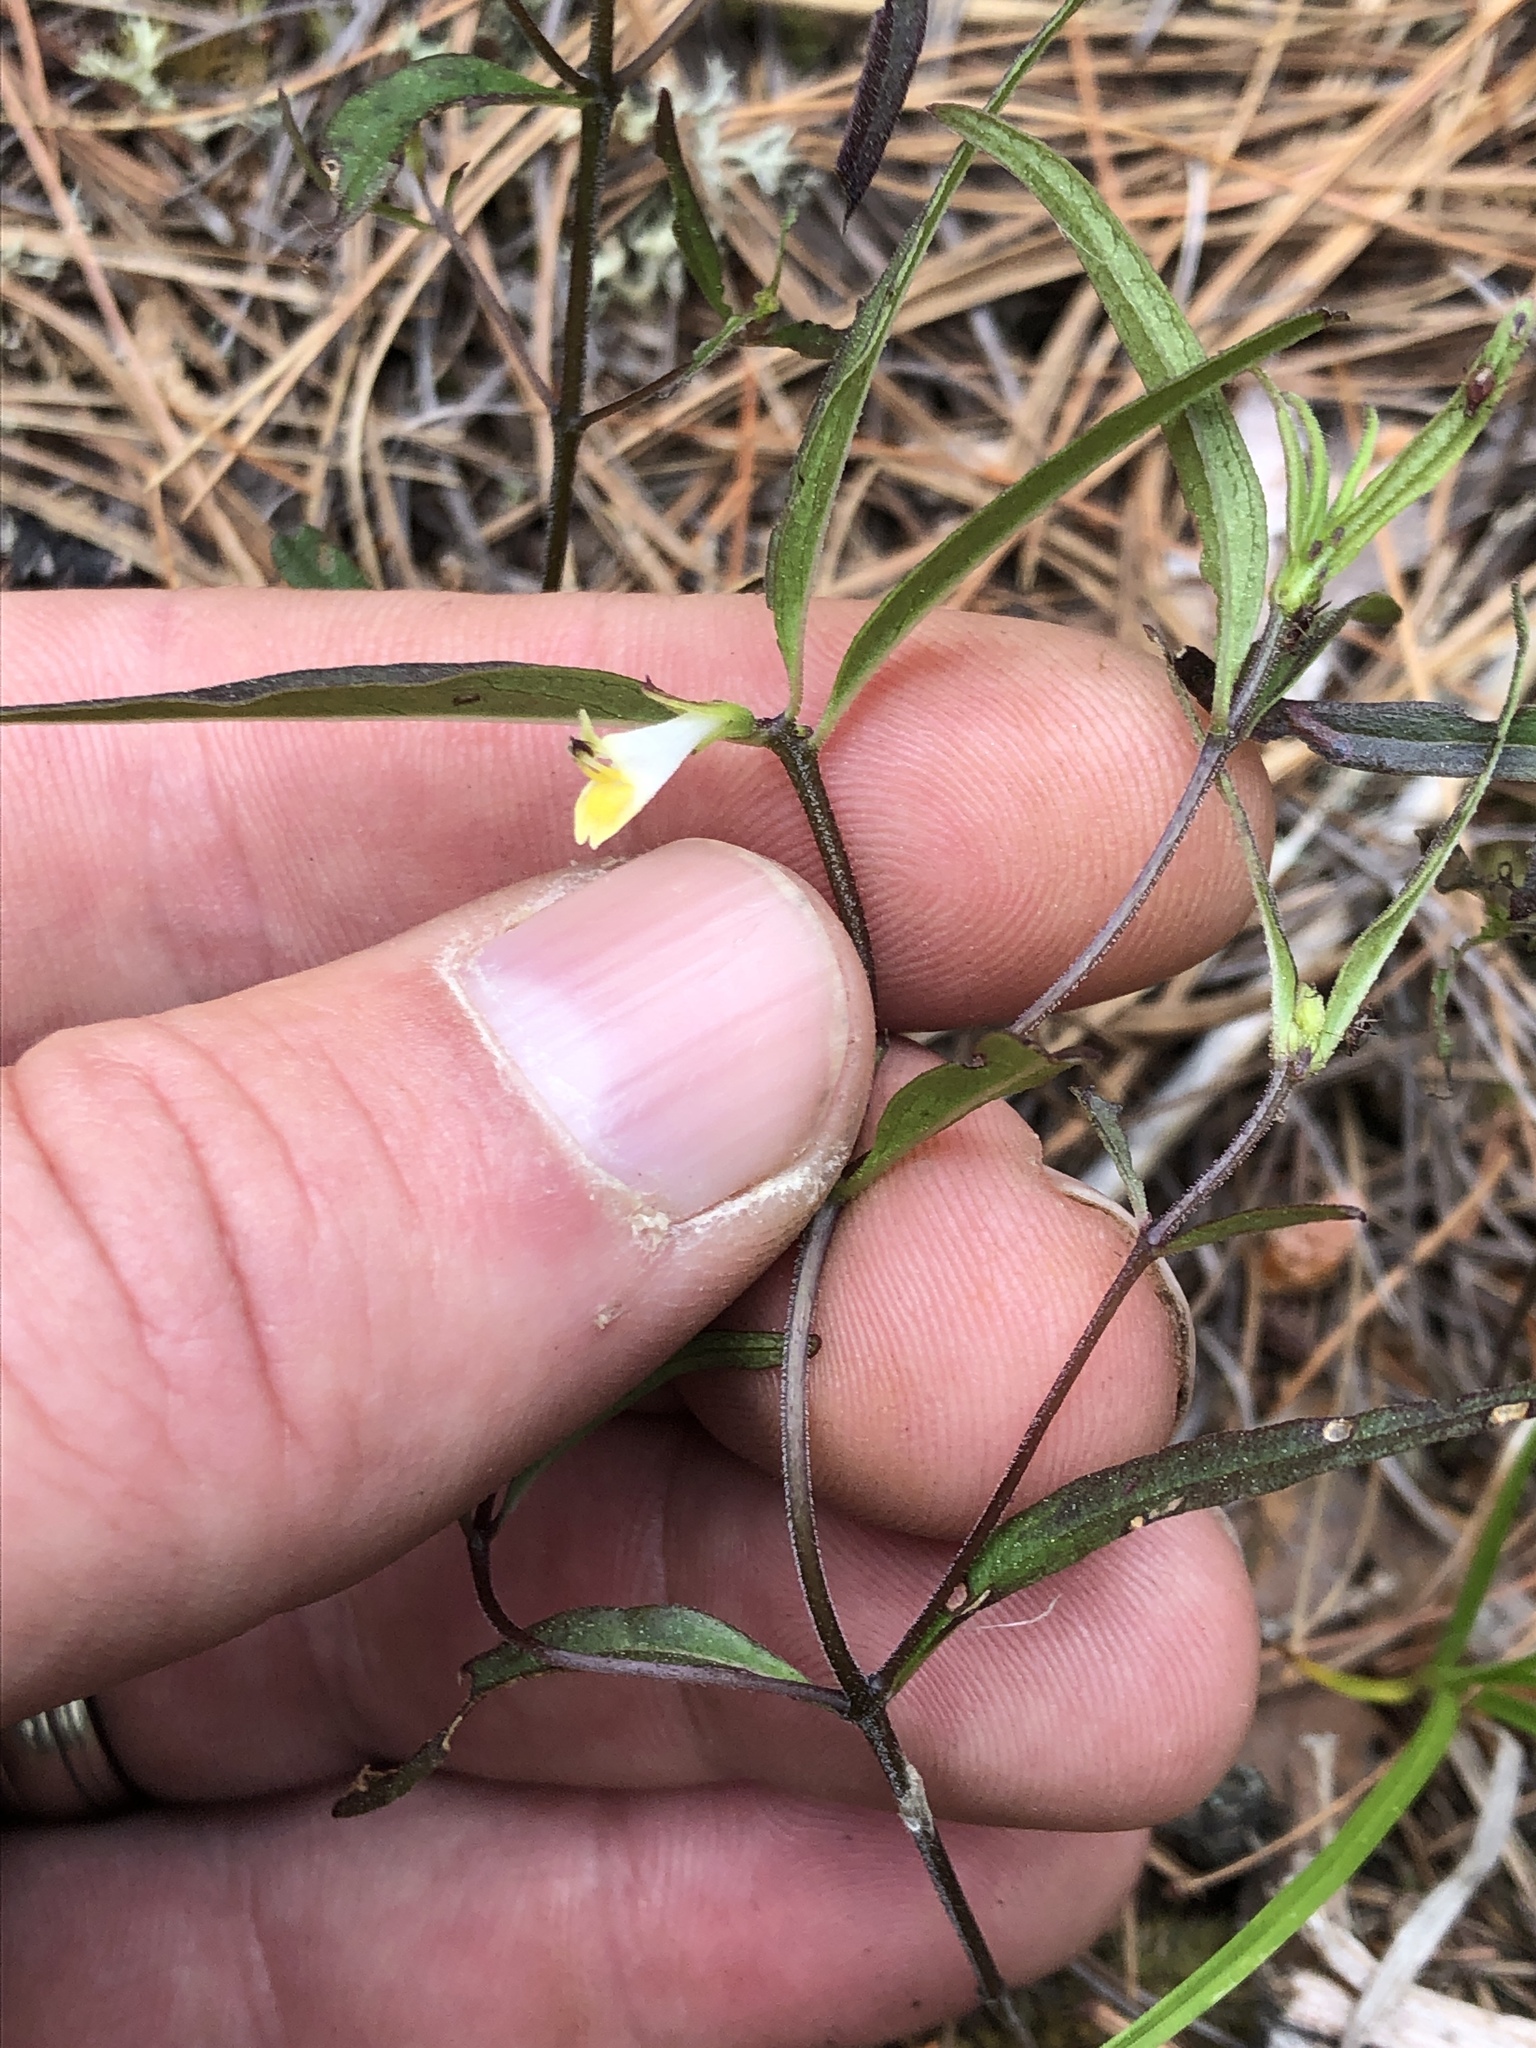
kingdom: Plantae
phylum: Tracheophyta
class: Magnoliopsida
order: Lamiales
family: Orobanchaceae
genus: Melampyrum
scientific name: Melampyrum lineare
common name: American cow-wheat
